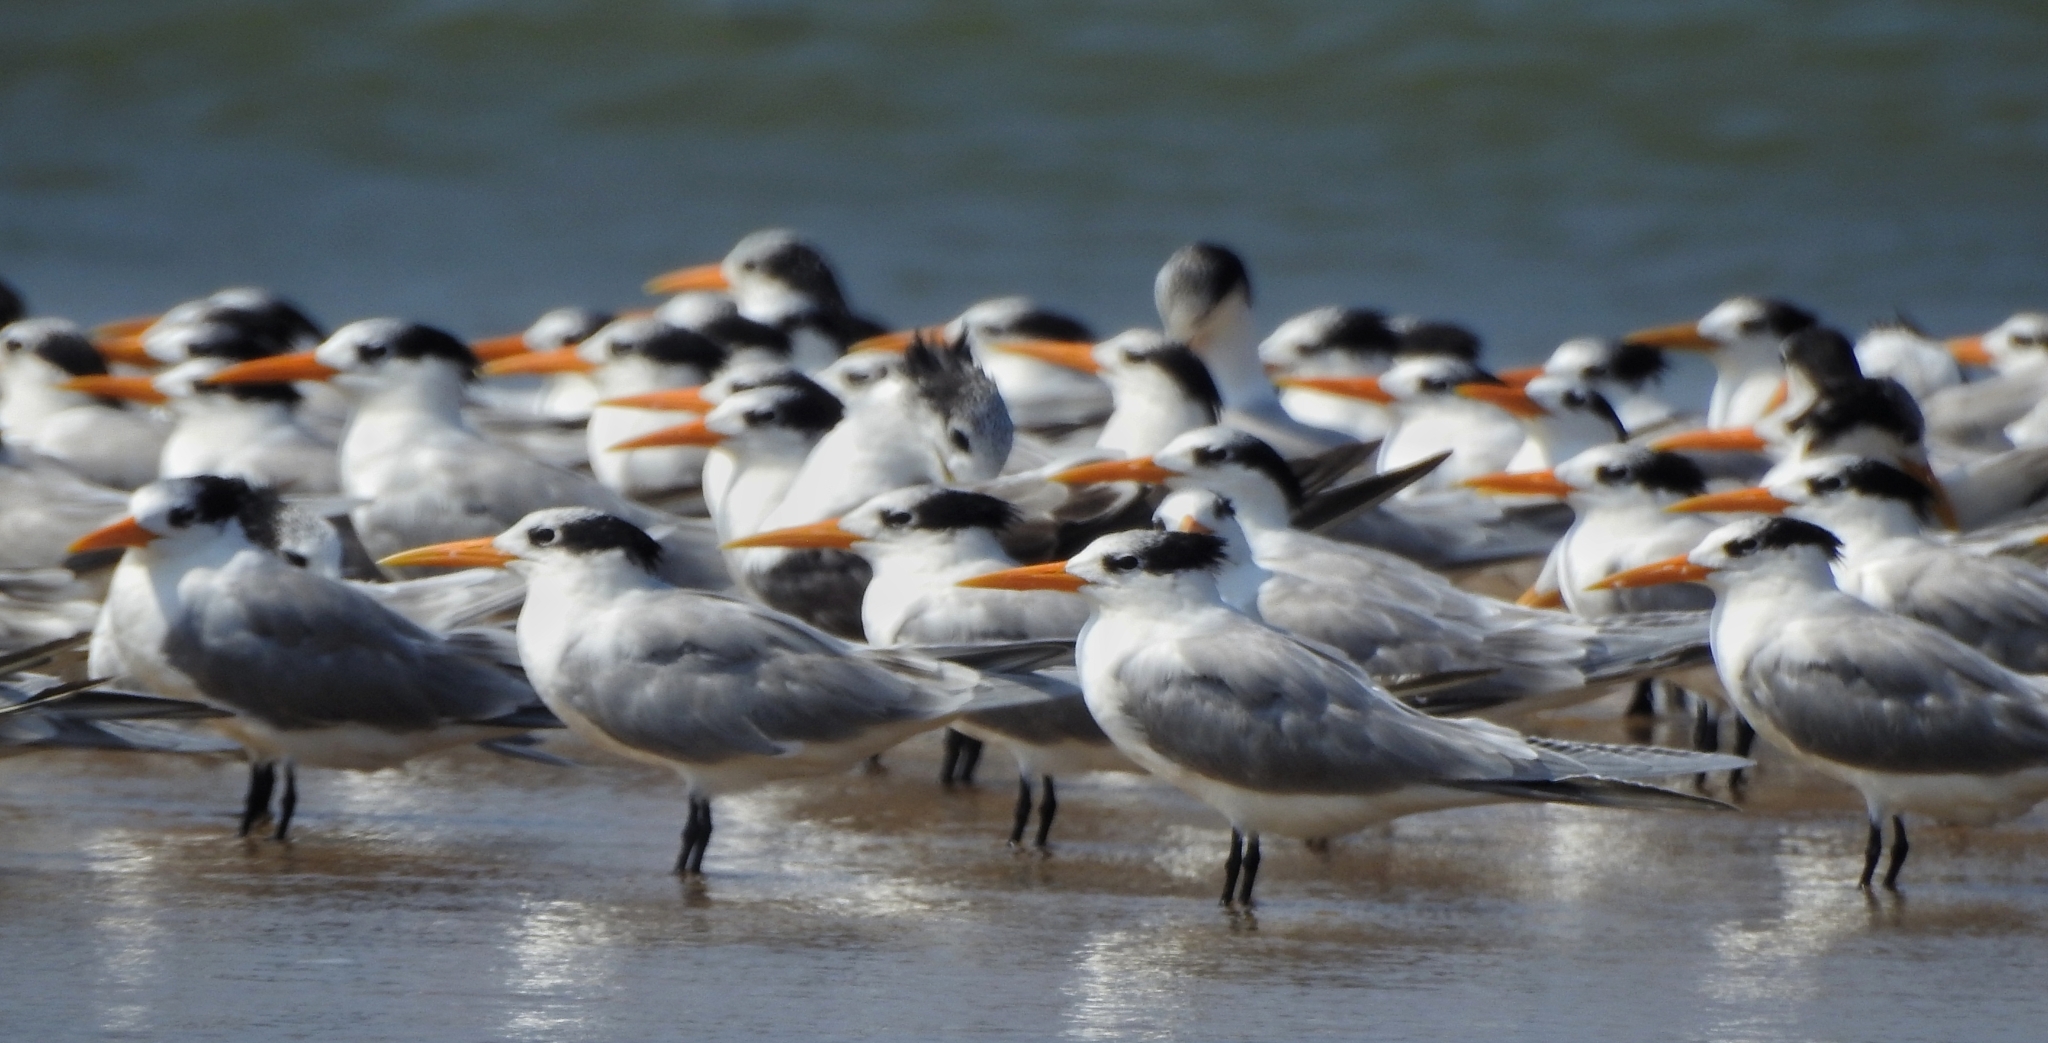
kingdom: Animalia
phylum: Chordata
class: Aves
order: Charadriiformes
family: Laridae
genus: Thalasseus
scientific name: Thalasseus bengalensis
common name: Lesser crested tern
